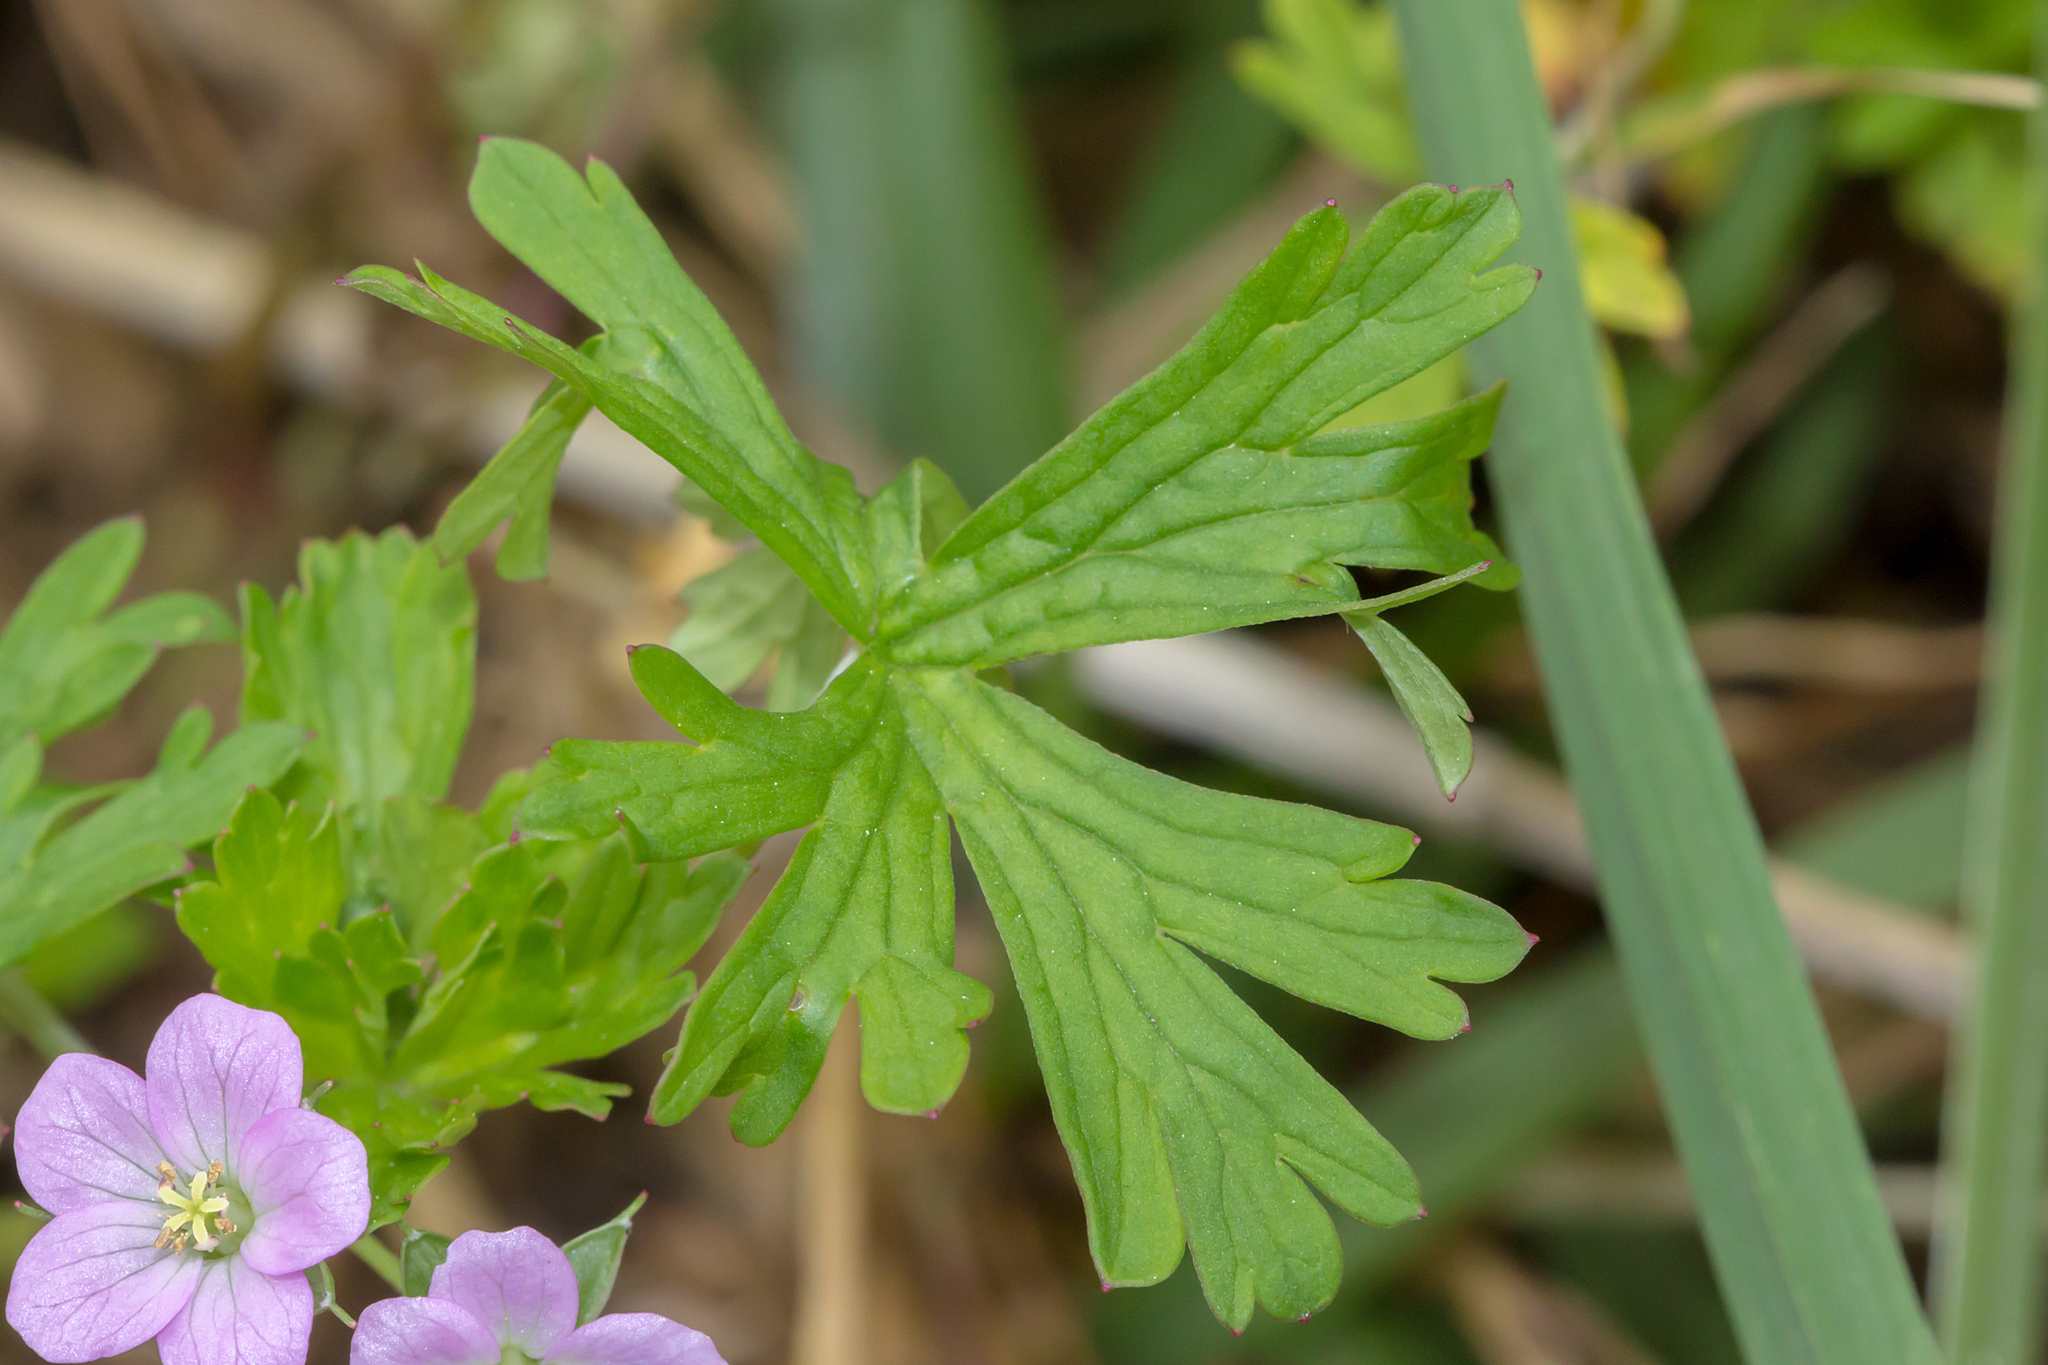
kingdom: Plantae
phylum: Tracheophyta
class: Magnoliopsida
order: Geraniales
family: Geraniaceae
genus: Geranium
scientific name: Geranium solanderi
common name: Solander's geranium
